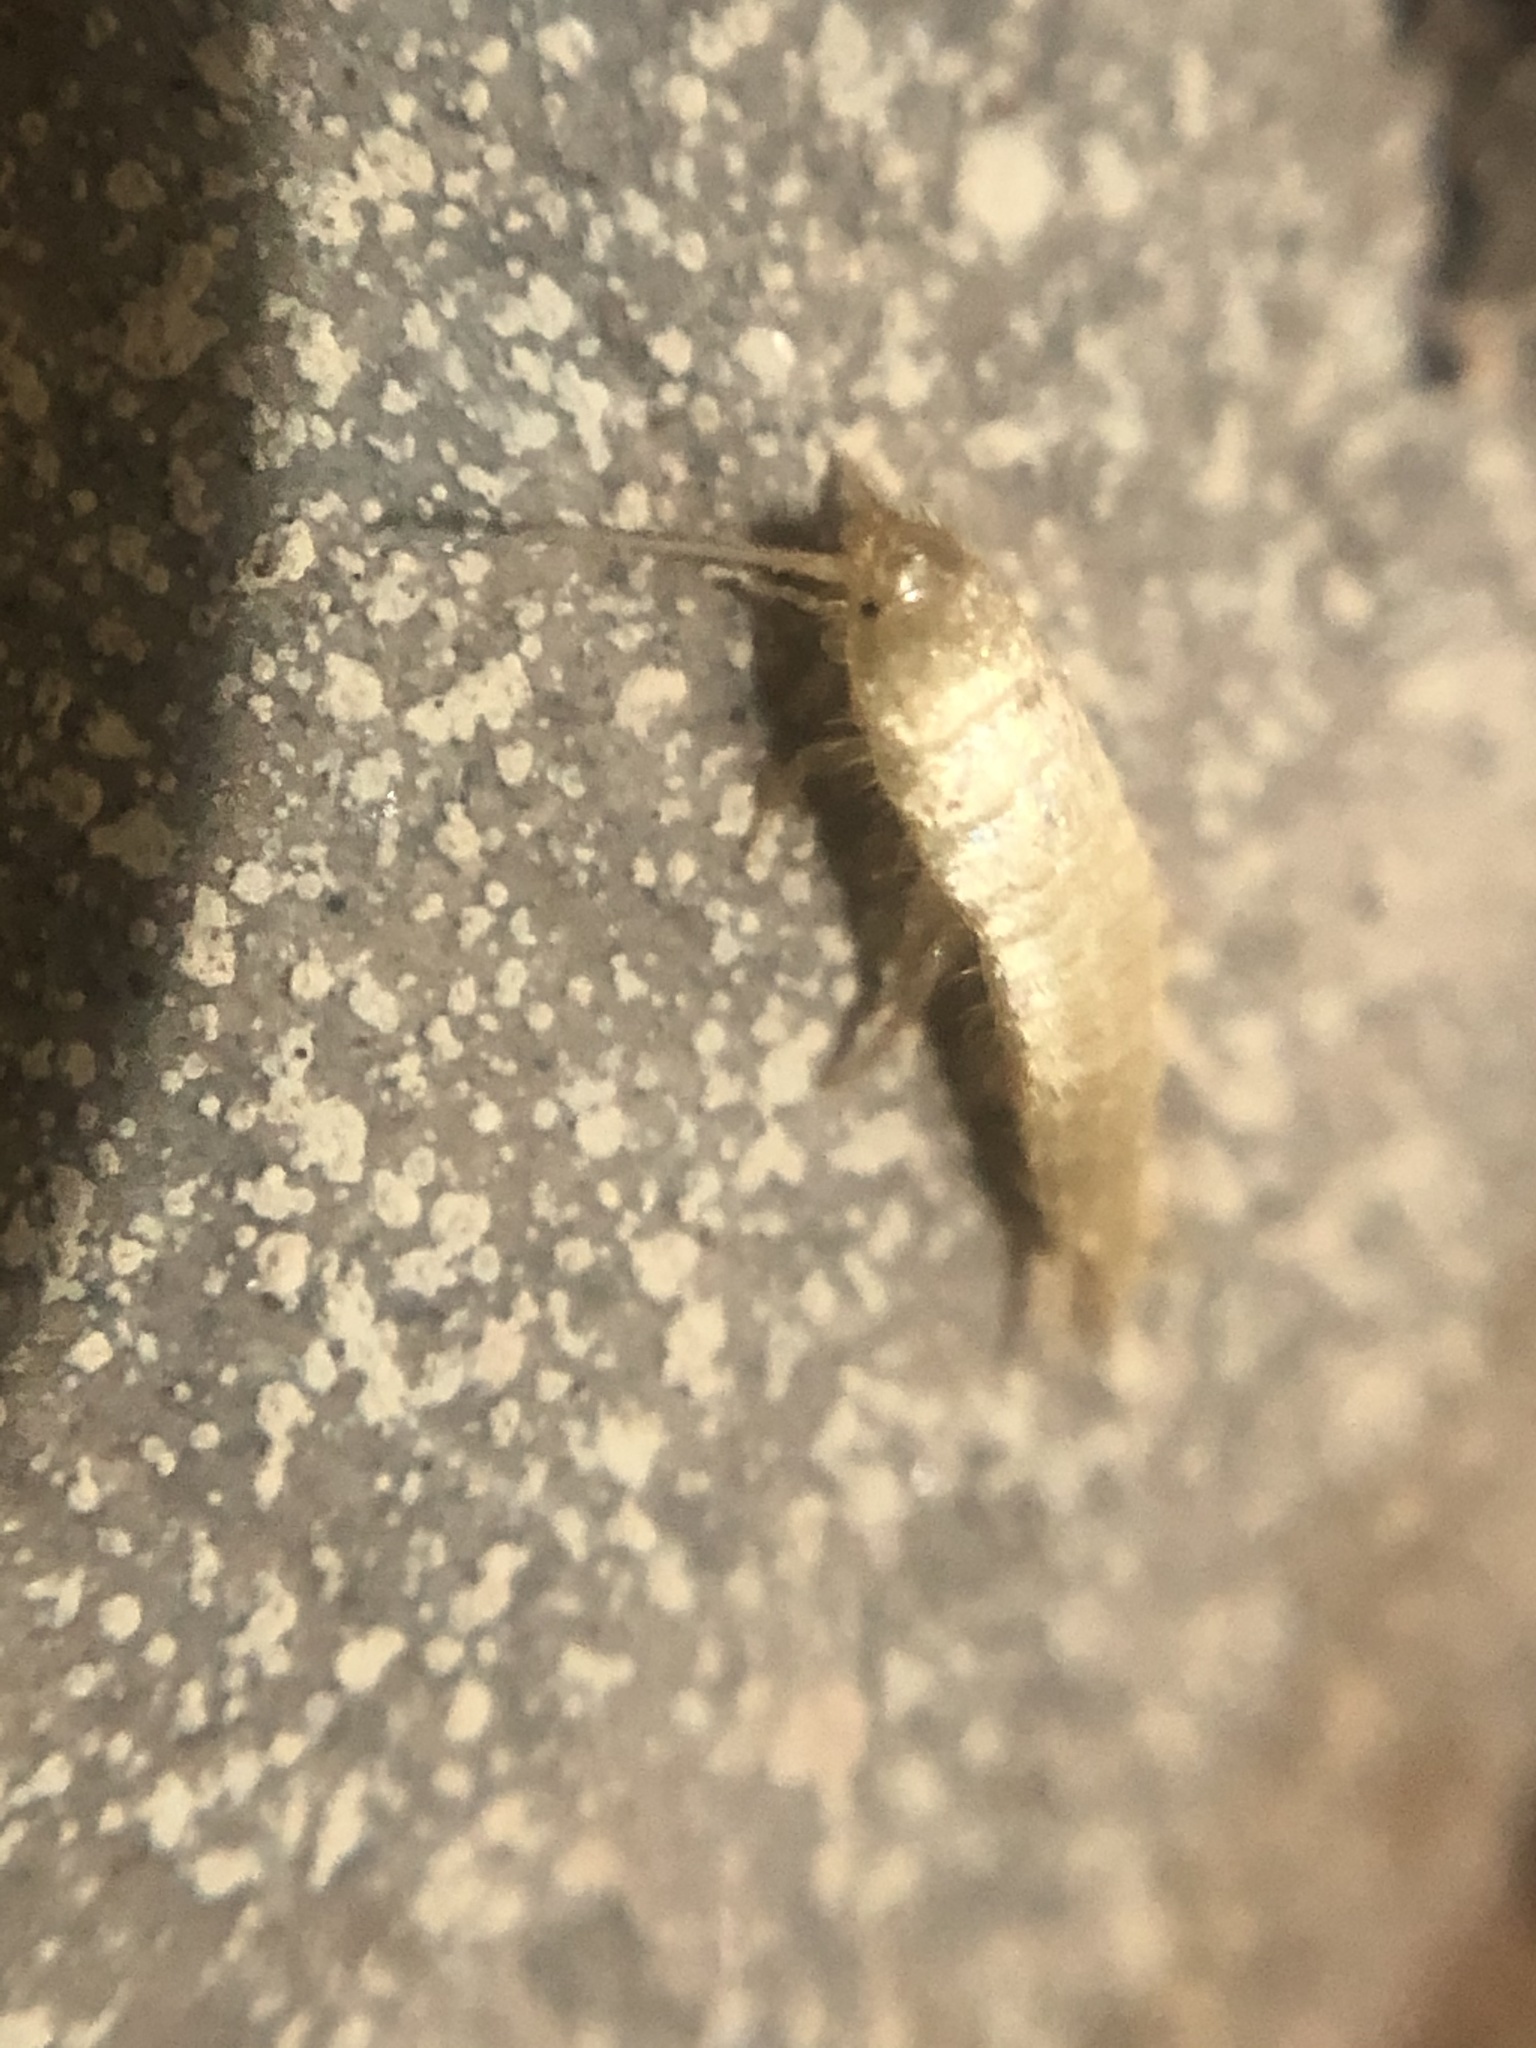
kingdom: Animalia
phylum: Arthropoda
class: Insecta
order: Zygentoma
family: Lepismatidae
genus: Mirolepisma
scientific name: Mirolepisma deserticola
